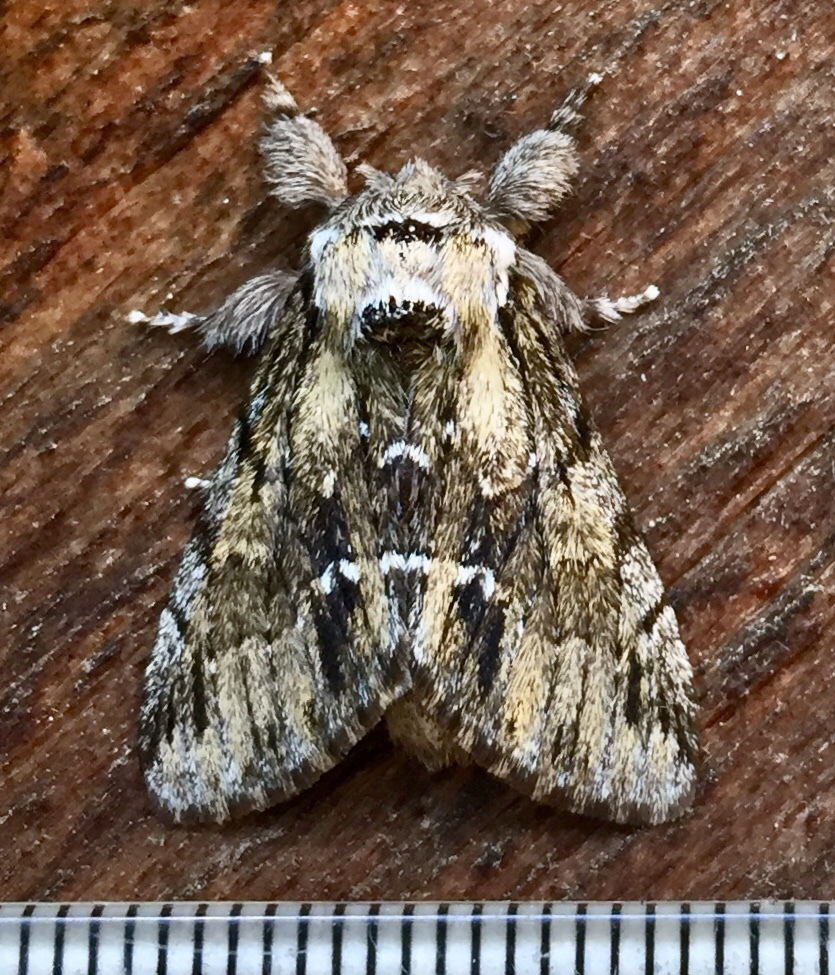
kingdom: Animalia
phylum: Arthropoda
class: Insecta
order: Lepidoptera
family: Notodontidae
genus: Paraeschra
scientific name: Paraeschra georgica
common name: Georgian prominent
